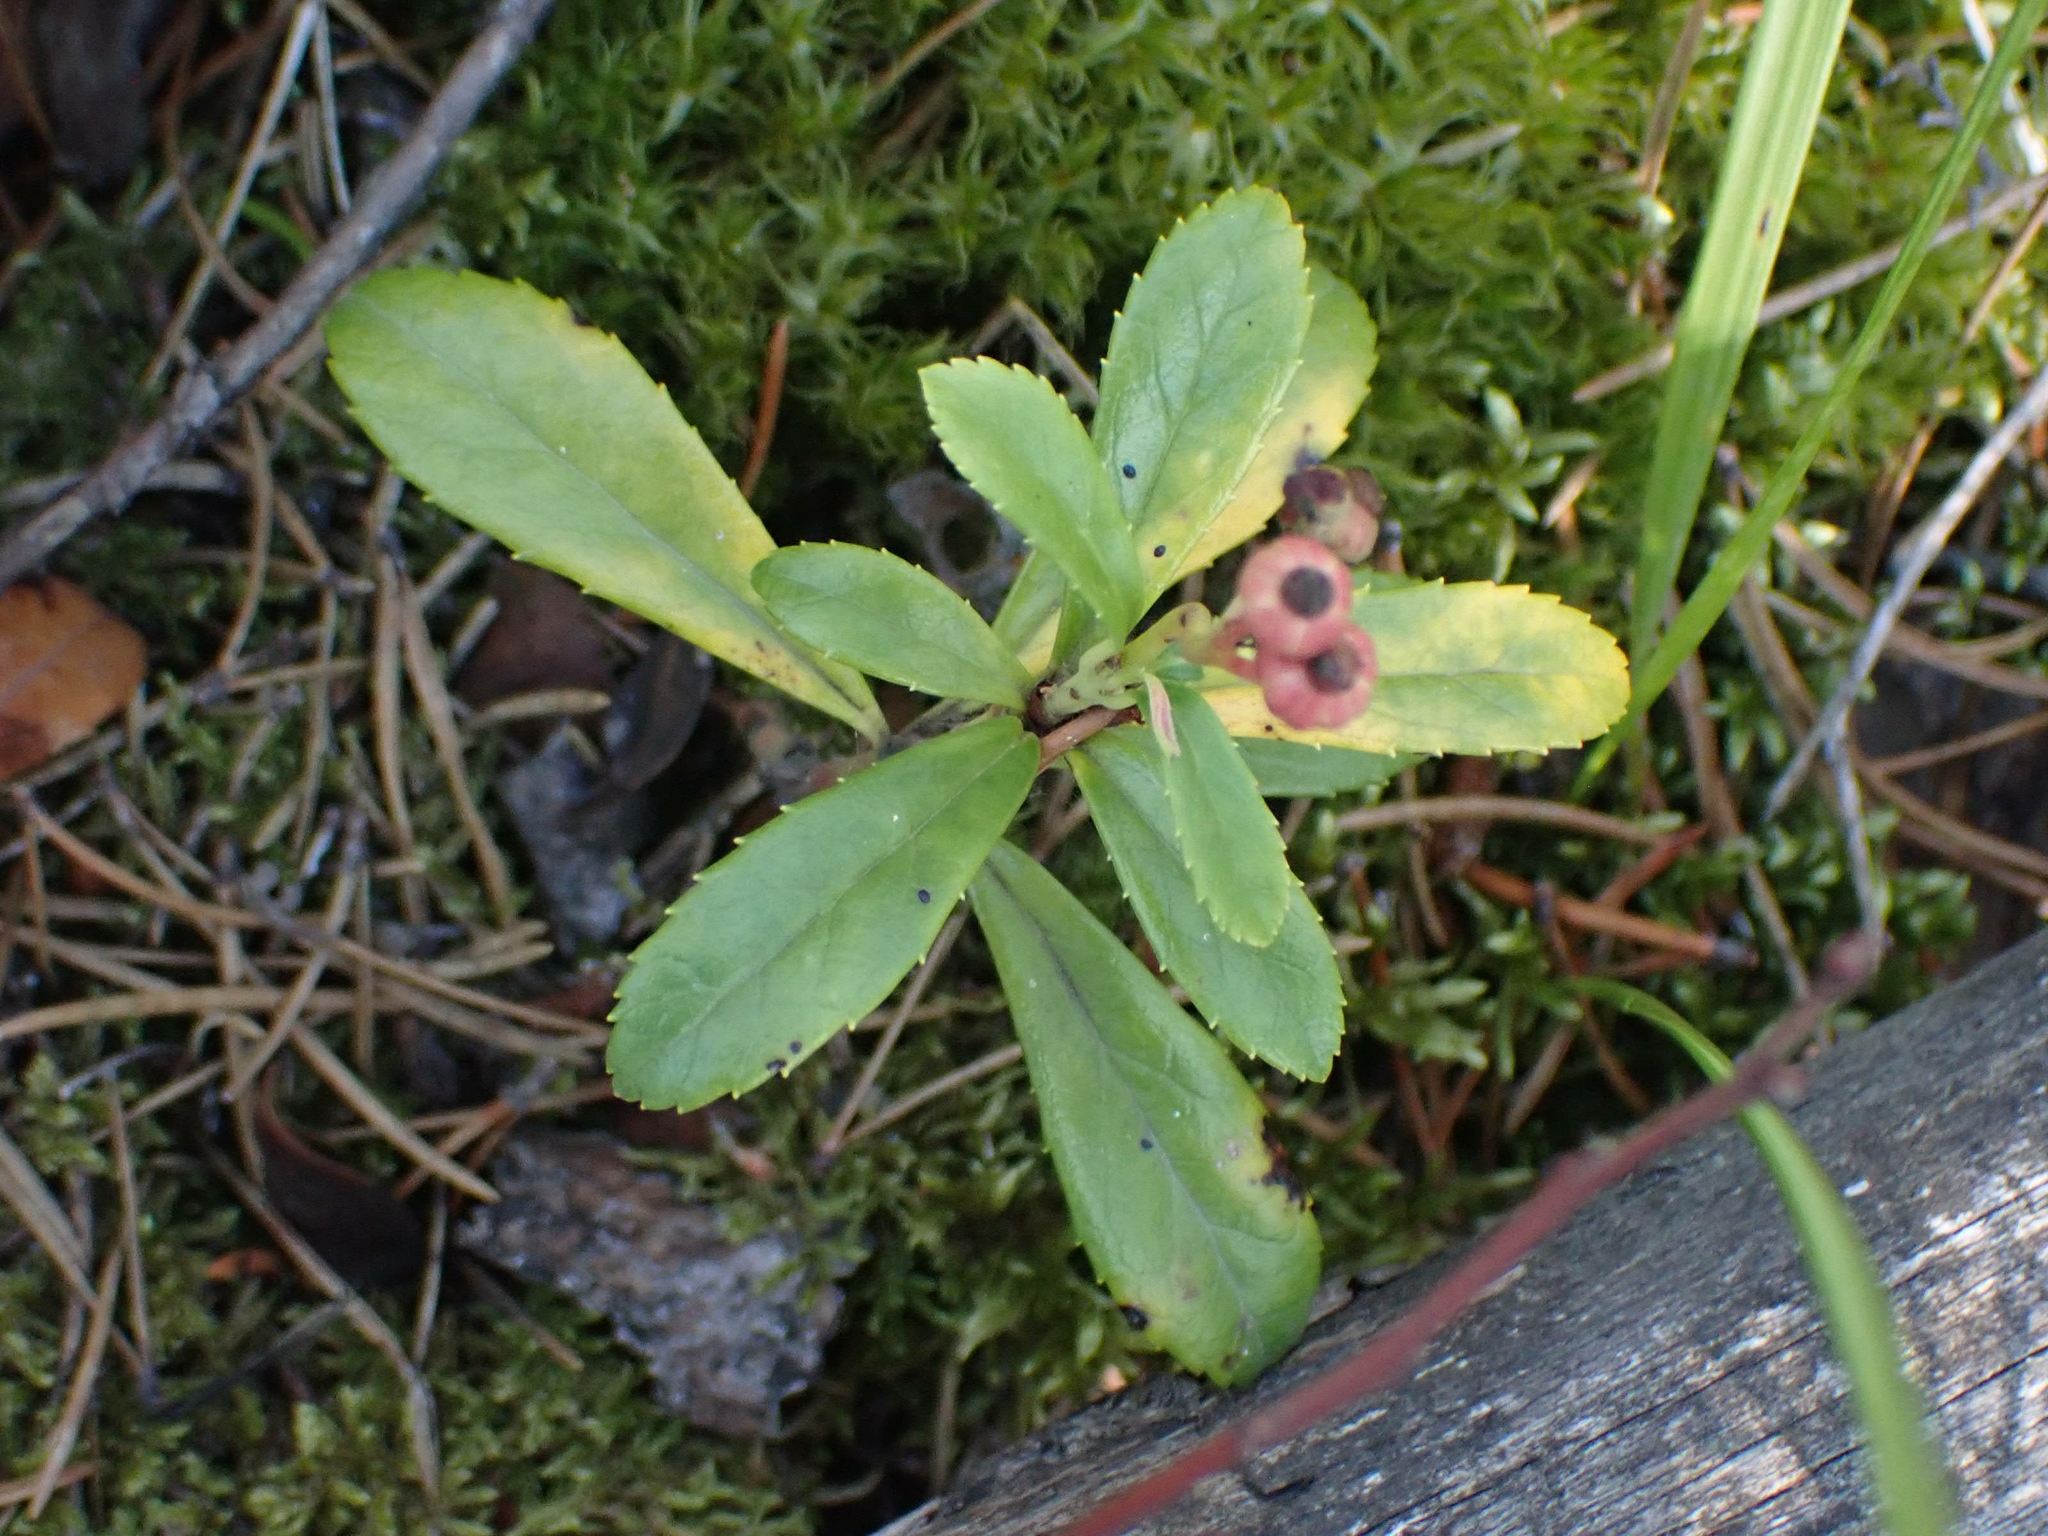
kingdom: Plantae
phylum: Tracheophyta
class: Magnoliopsida
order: Ericales
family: Ericaceae
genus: Chimaphila
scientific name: Chimaphila umbellata
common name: Pipsissewa
